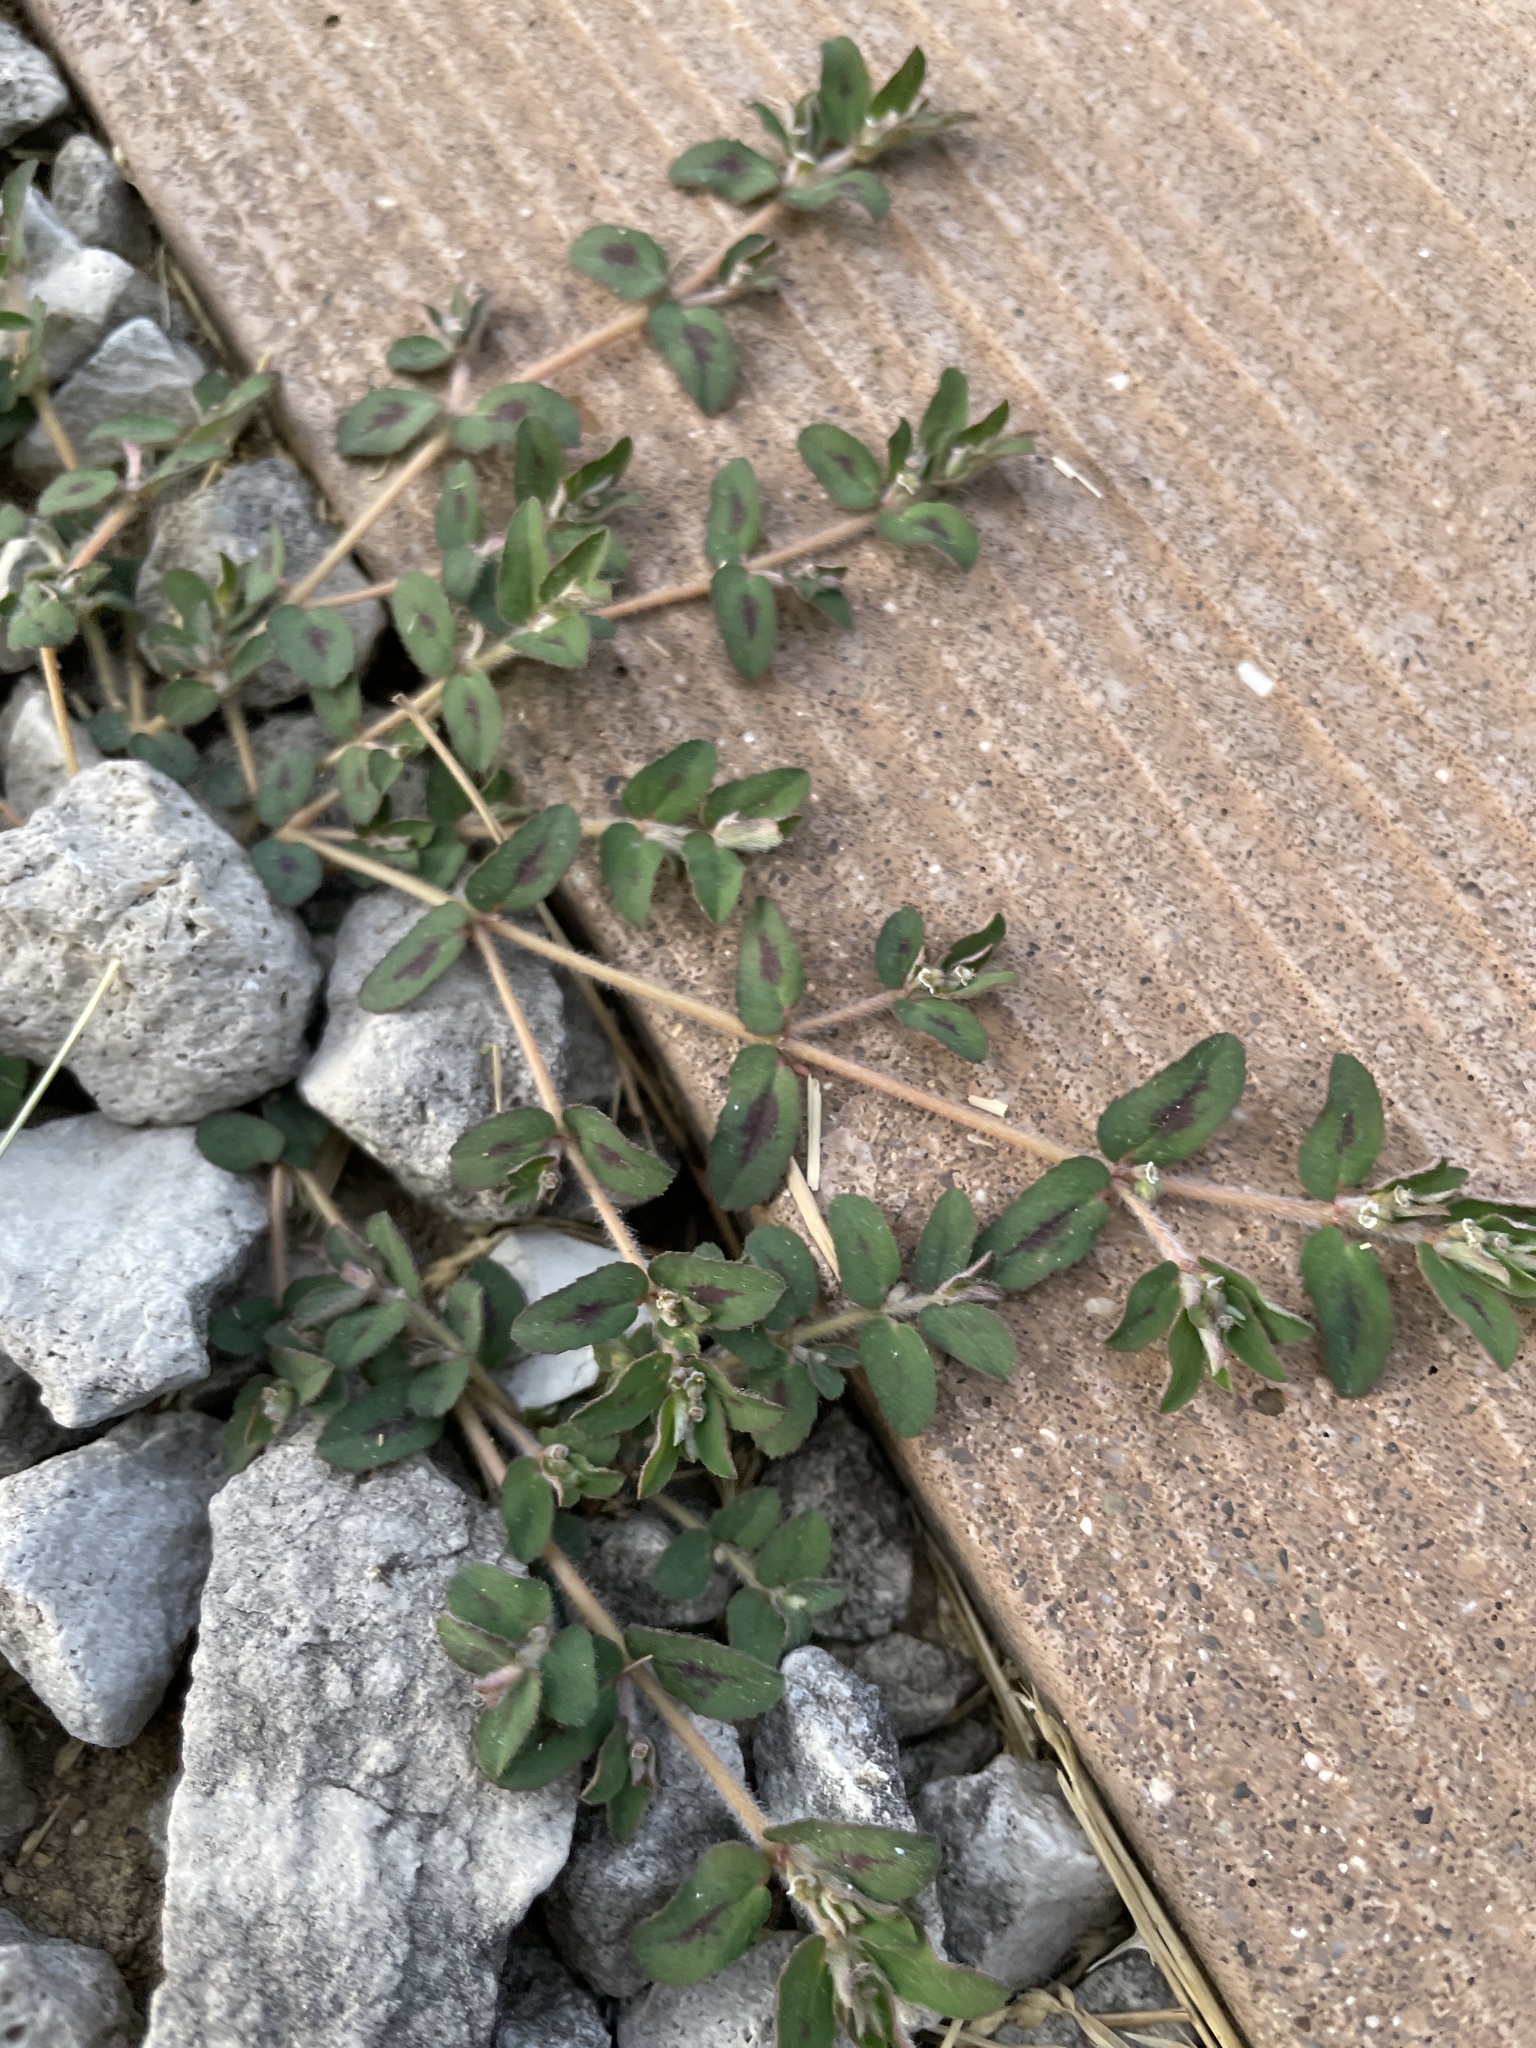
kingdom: Plantae
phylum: Tracheophyta
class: Magnoliopsida
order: Malpighiales
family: Euphorbiaceae
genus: Euphorbia
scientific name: Euphorbia maculata
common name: Spotted spurge
